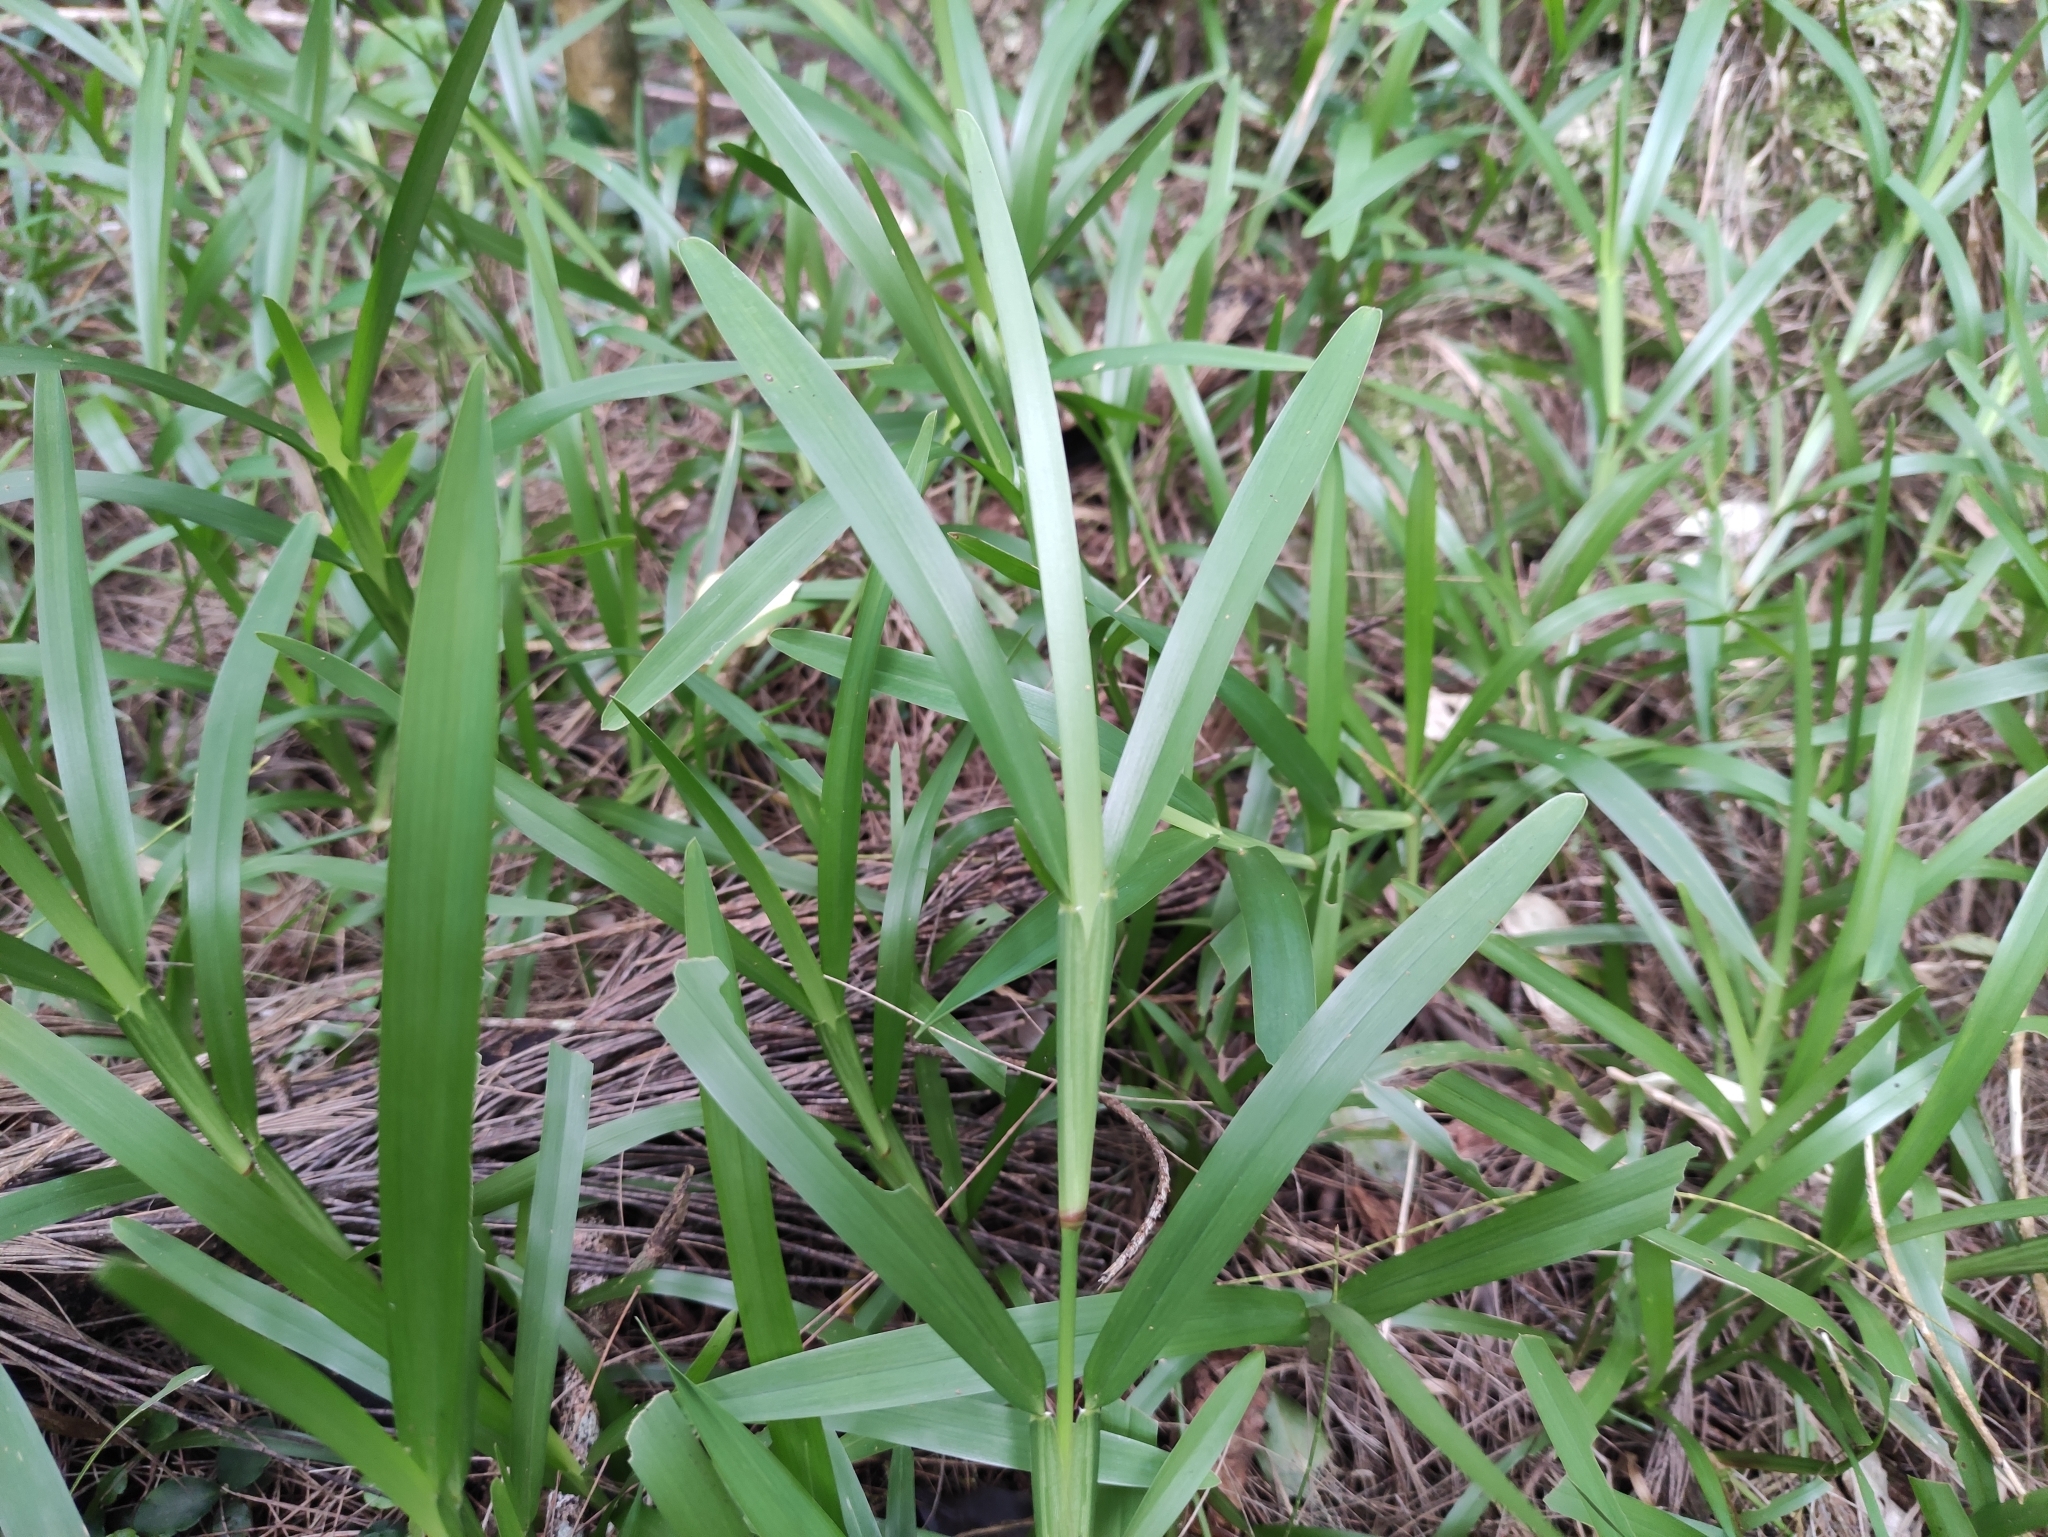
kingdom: Plantae
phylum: Tracheophyta
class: Liliopsida
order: Poales
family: Poaceae
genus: Stenotaphrum
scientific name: Stenotaphrum dimidiatum
